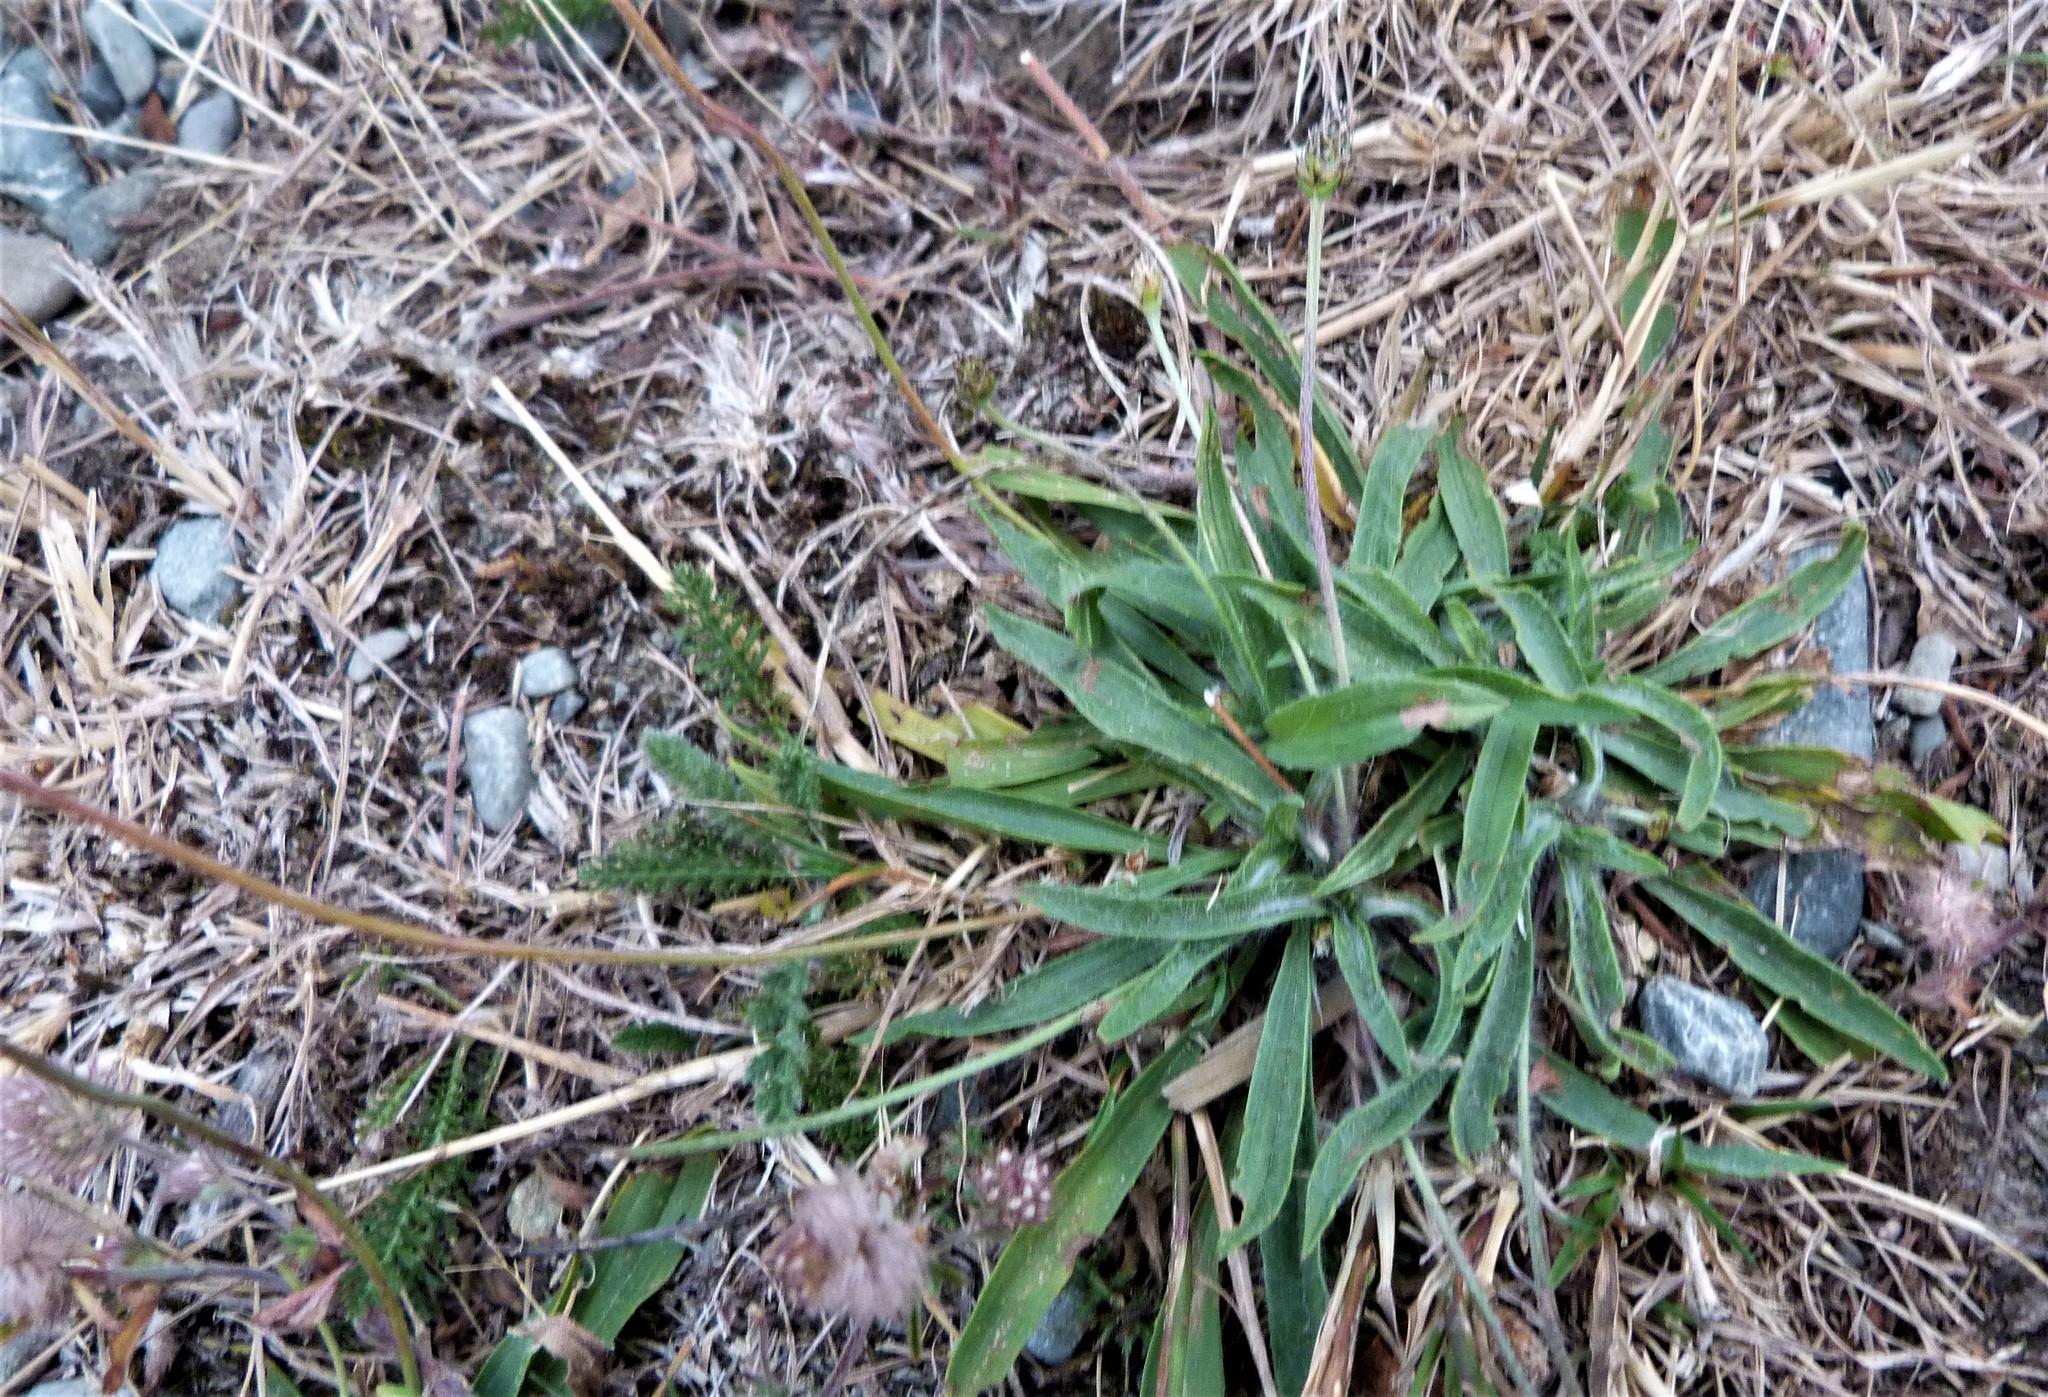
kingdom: Plantae
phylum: Tracheophyta
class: Magnoliopsida
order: Lamiales
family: Plantaginaceae
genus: Plantago
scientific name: Plantago lanceolata
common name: Ribwort plantain
